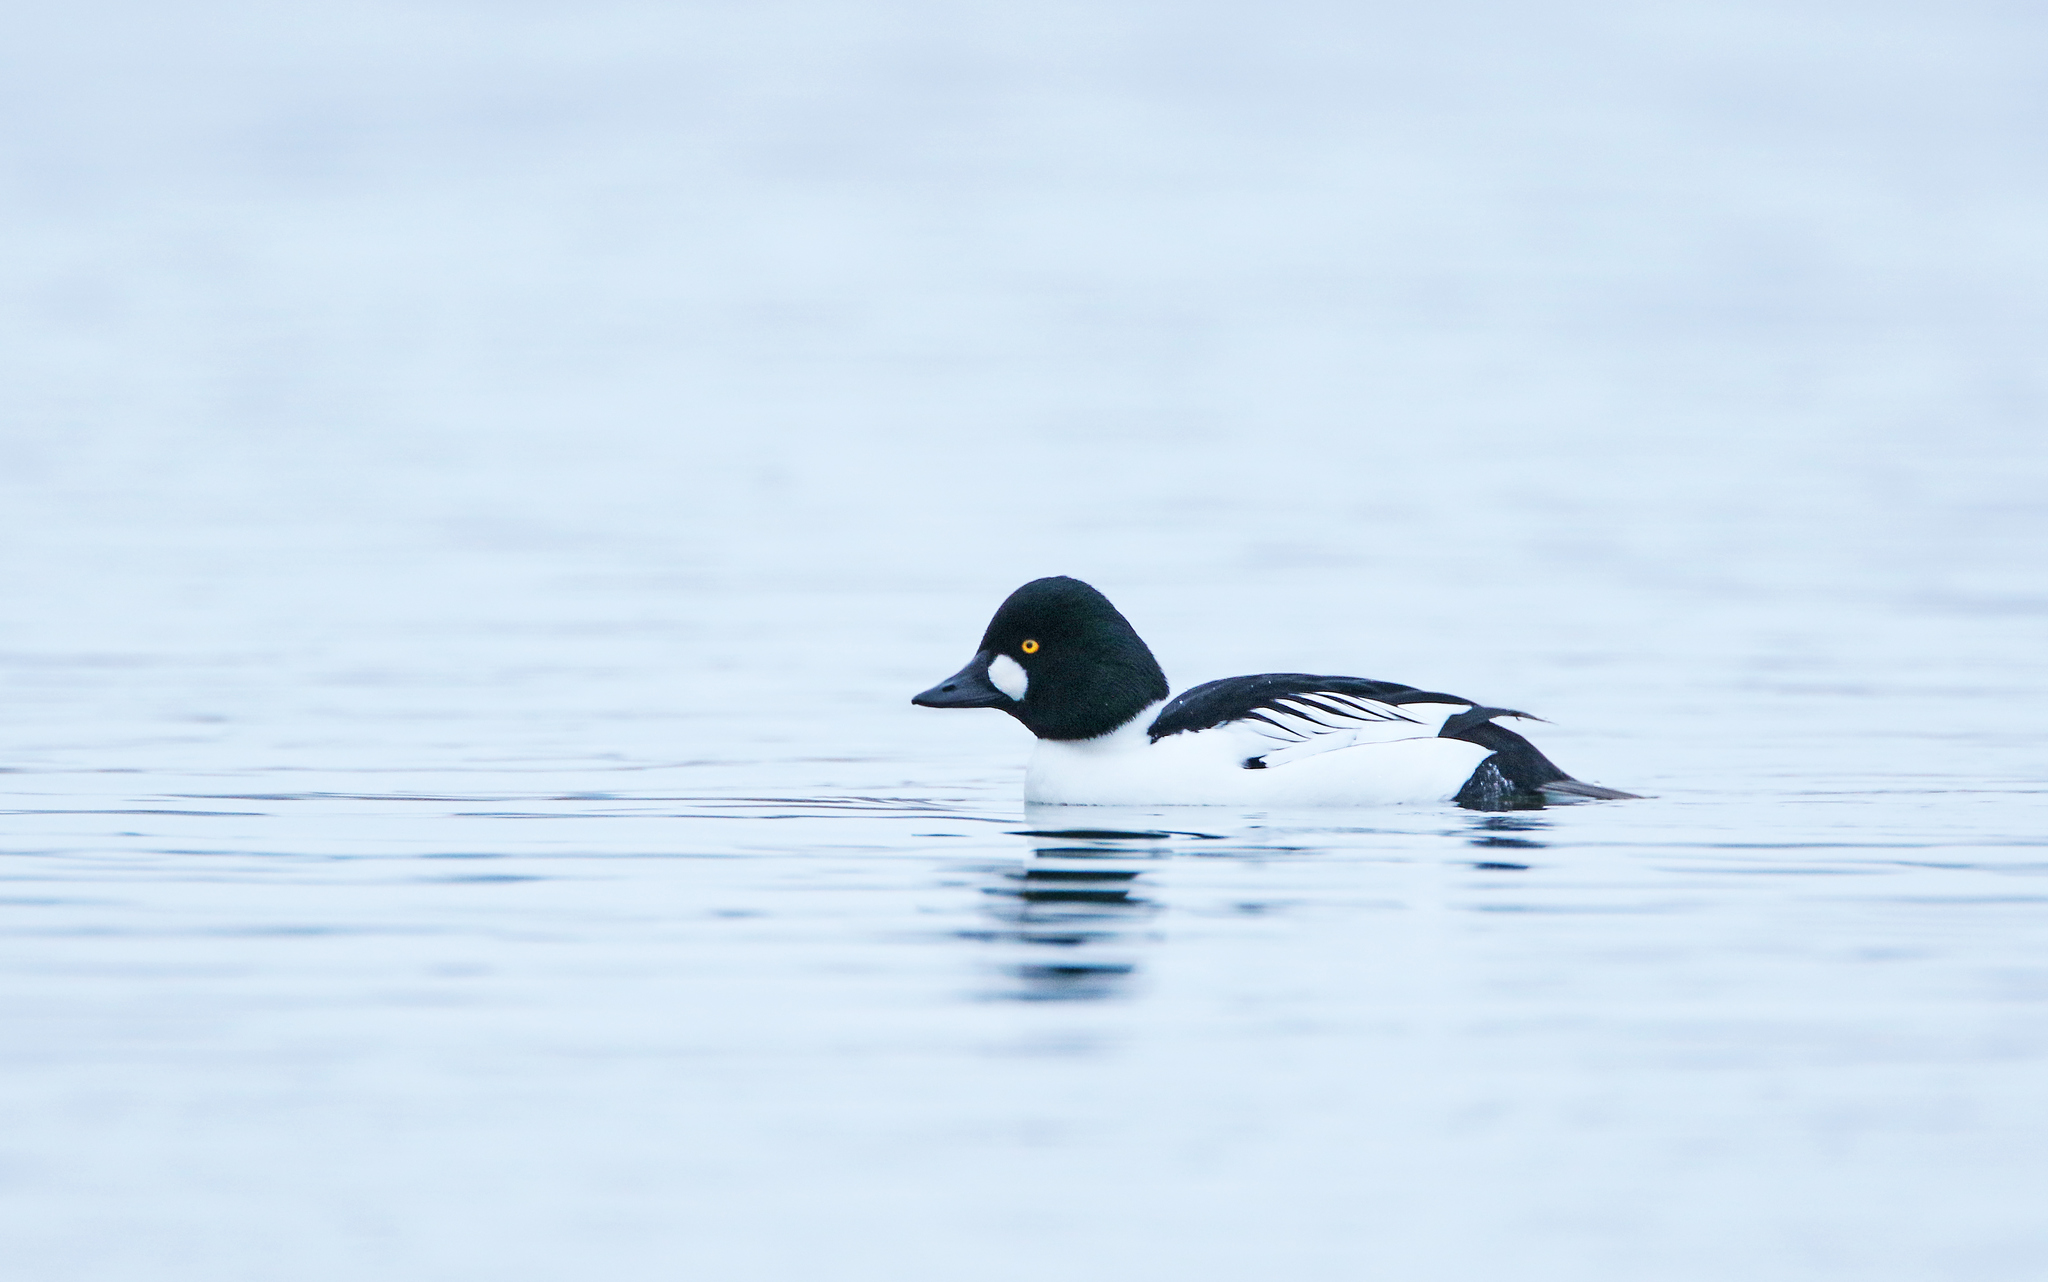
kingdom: Animalia
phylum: Chordata
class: Aves
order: Anseriformes
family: Anatidae
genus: Bucephala
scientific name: Bucephala clangula
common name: Common goldeneye
